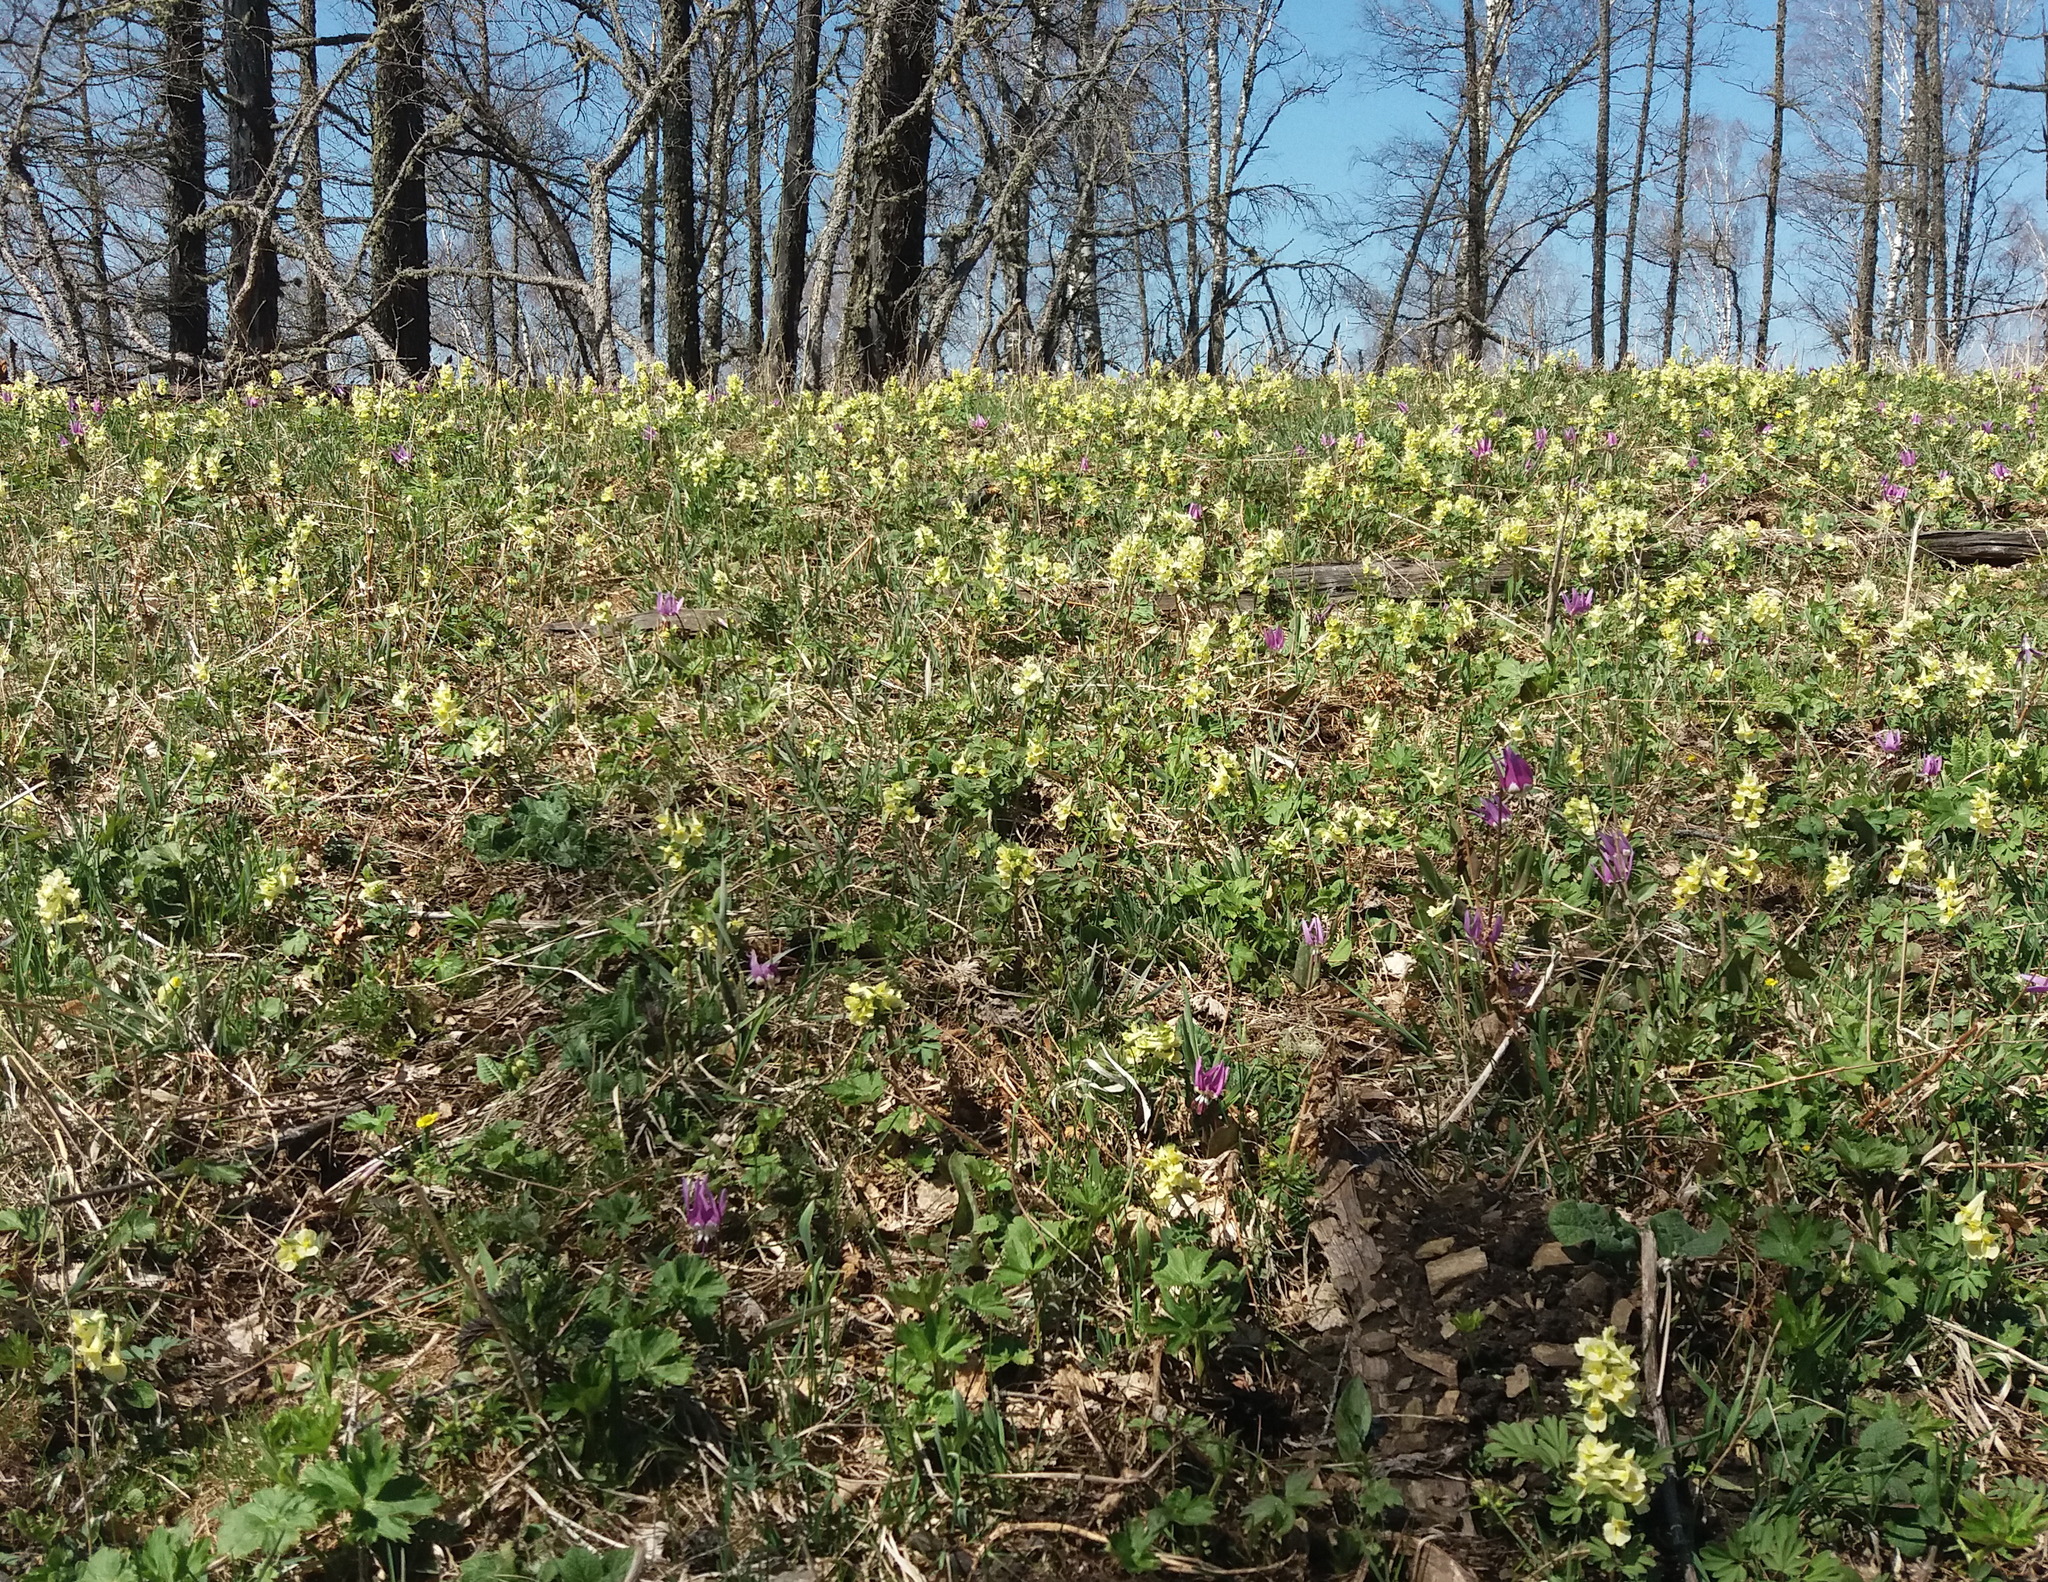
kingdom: Plantae
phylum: Tracheophyta
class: Magnoliopsida
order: Ranunculales
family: Papaveraceae
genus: Corydalis
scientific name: Corydalis bracteata
